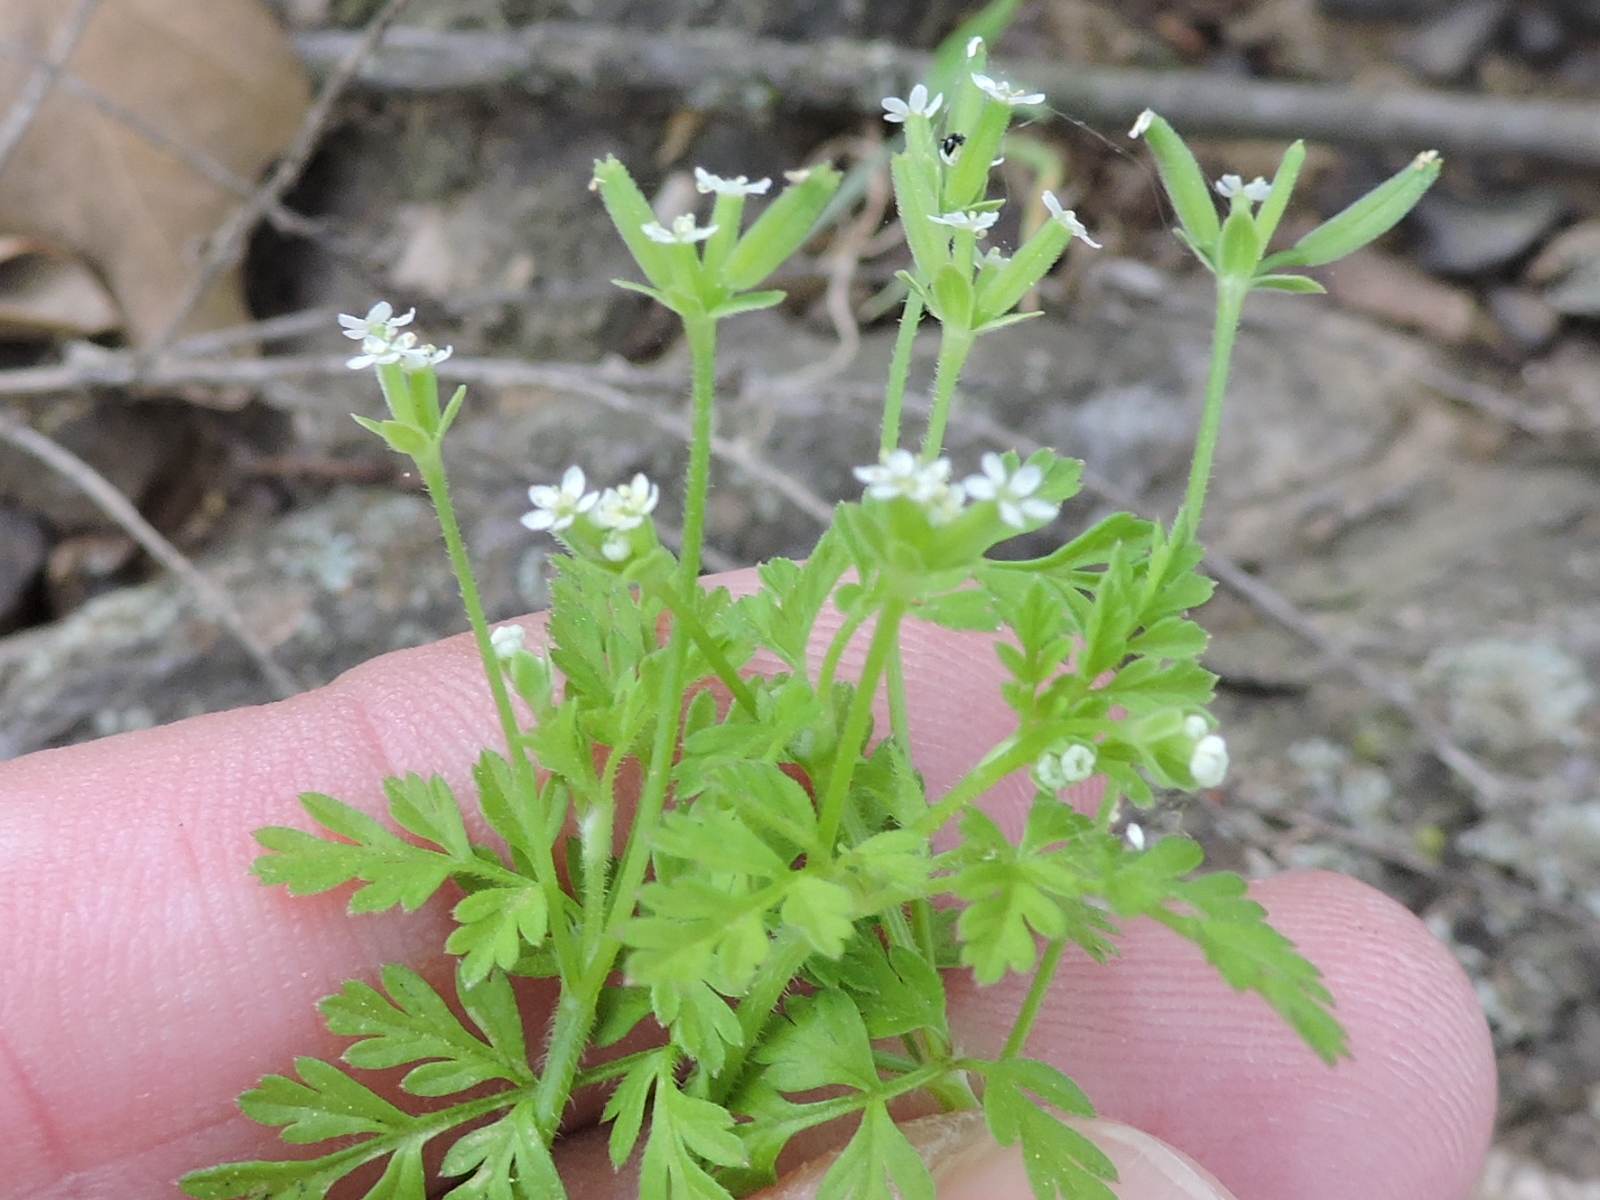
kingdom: Plantae
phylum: Tracheophyta
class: Magnoliopsida
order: Apiales
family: Apiaceae
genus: Chaerophyllum
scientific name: Chaerophyllum tainturieri
